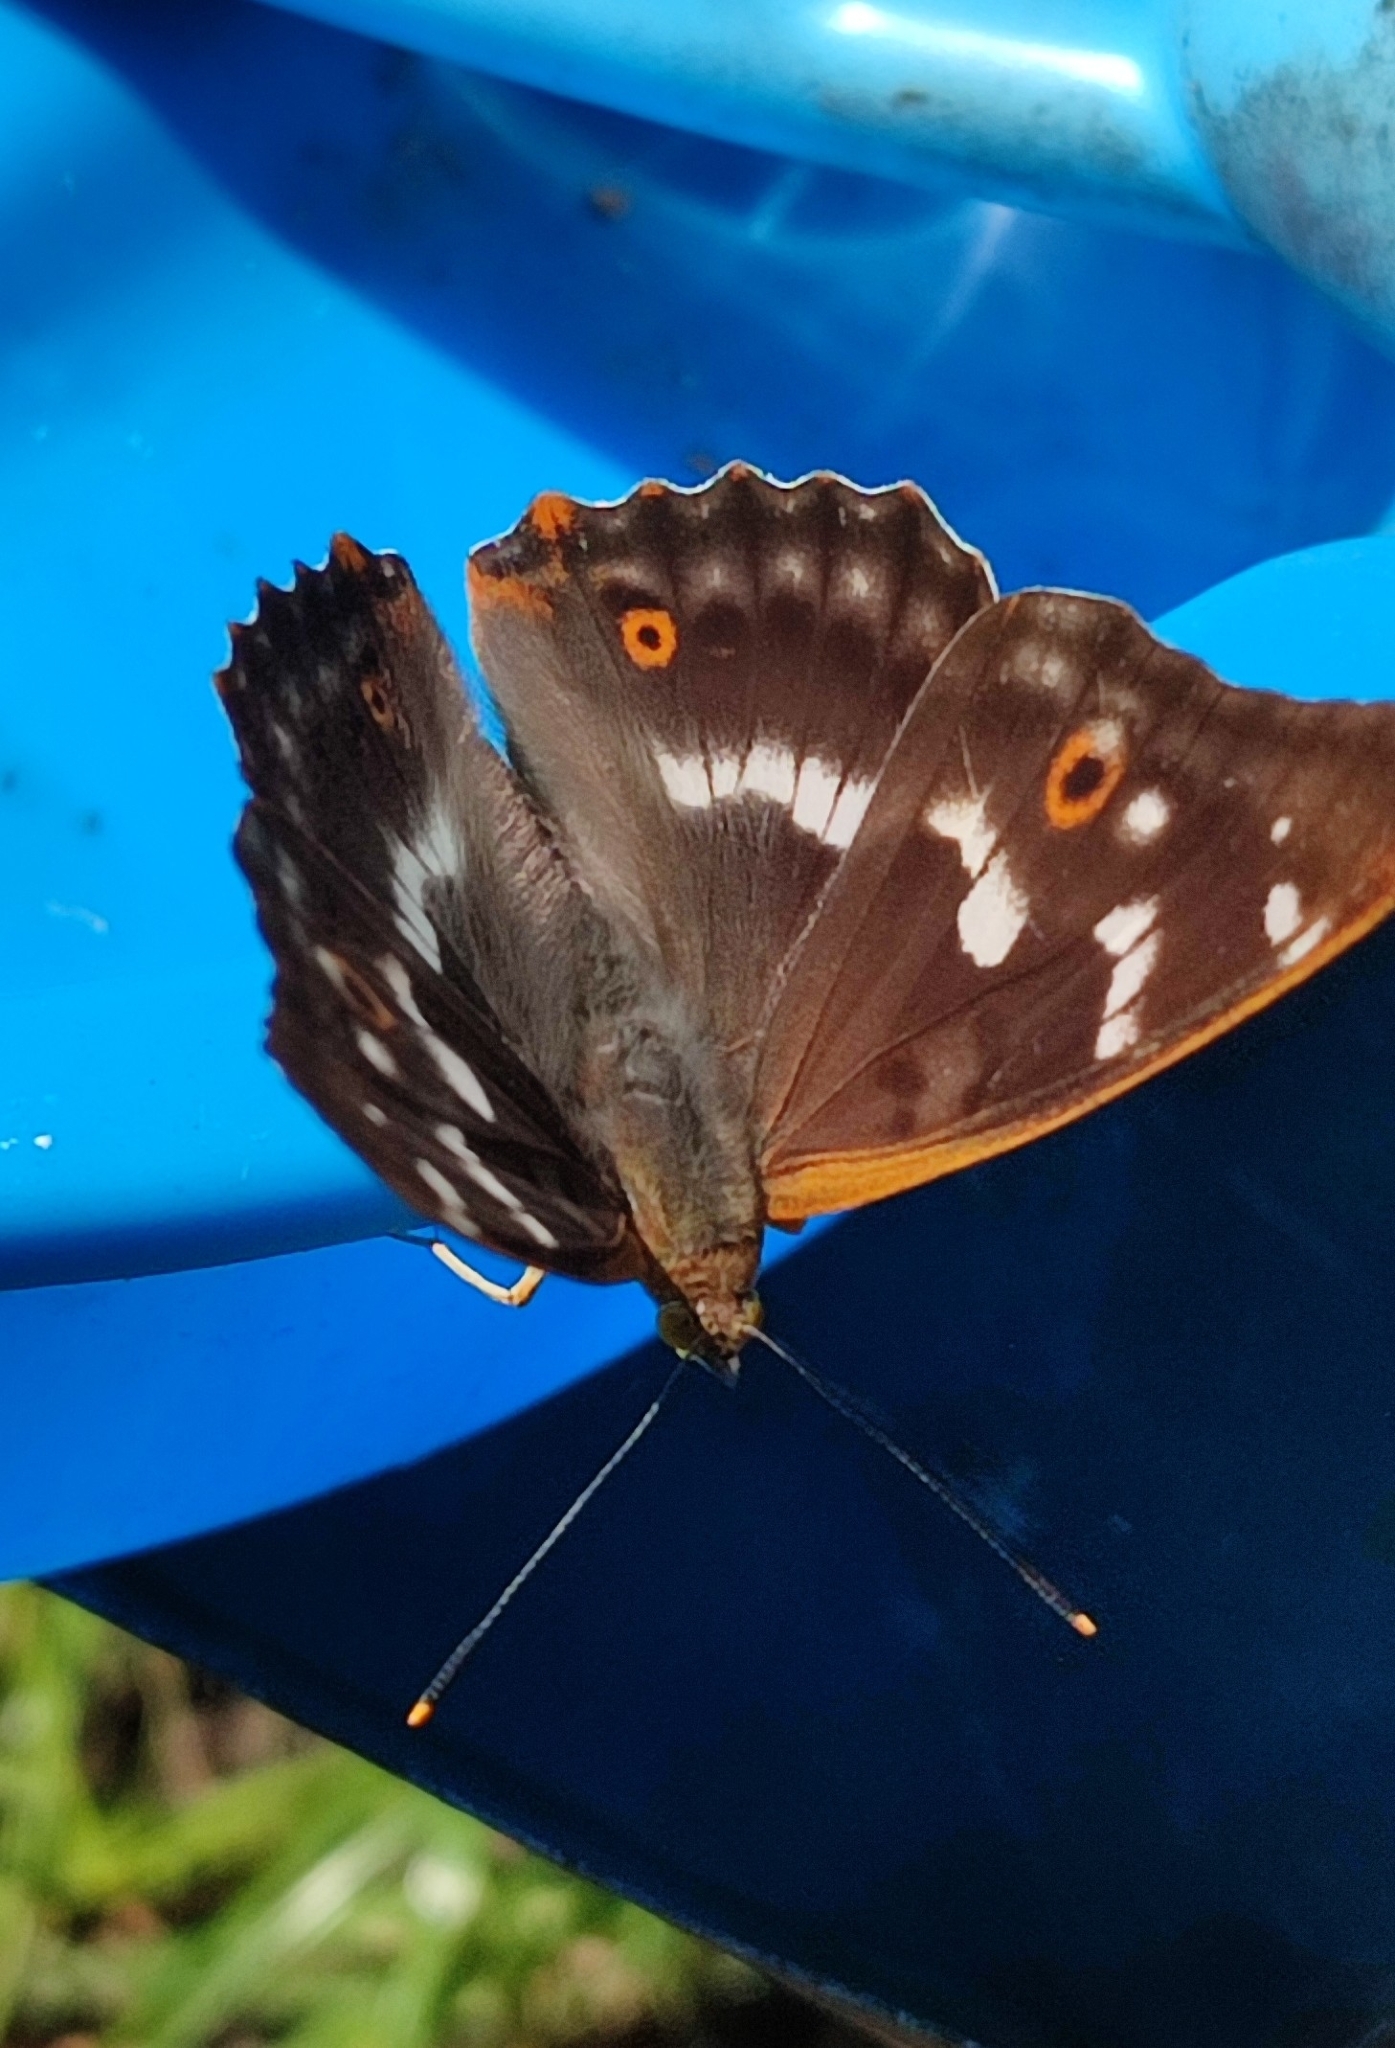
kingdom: Animalia
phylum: Arthropoda
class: Insecta
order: Lepidoptera
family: Nymphalidae
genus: Apatura
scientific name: Apatura ilia
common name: Lesser purple emperor
